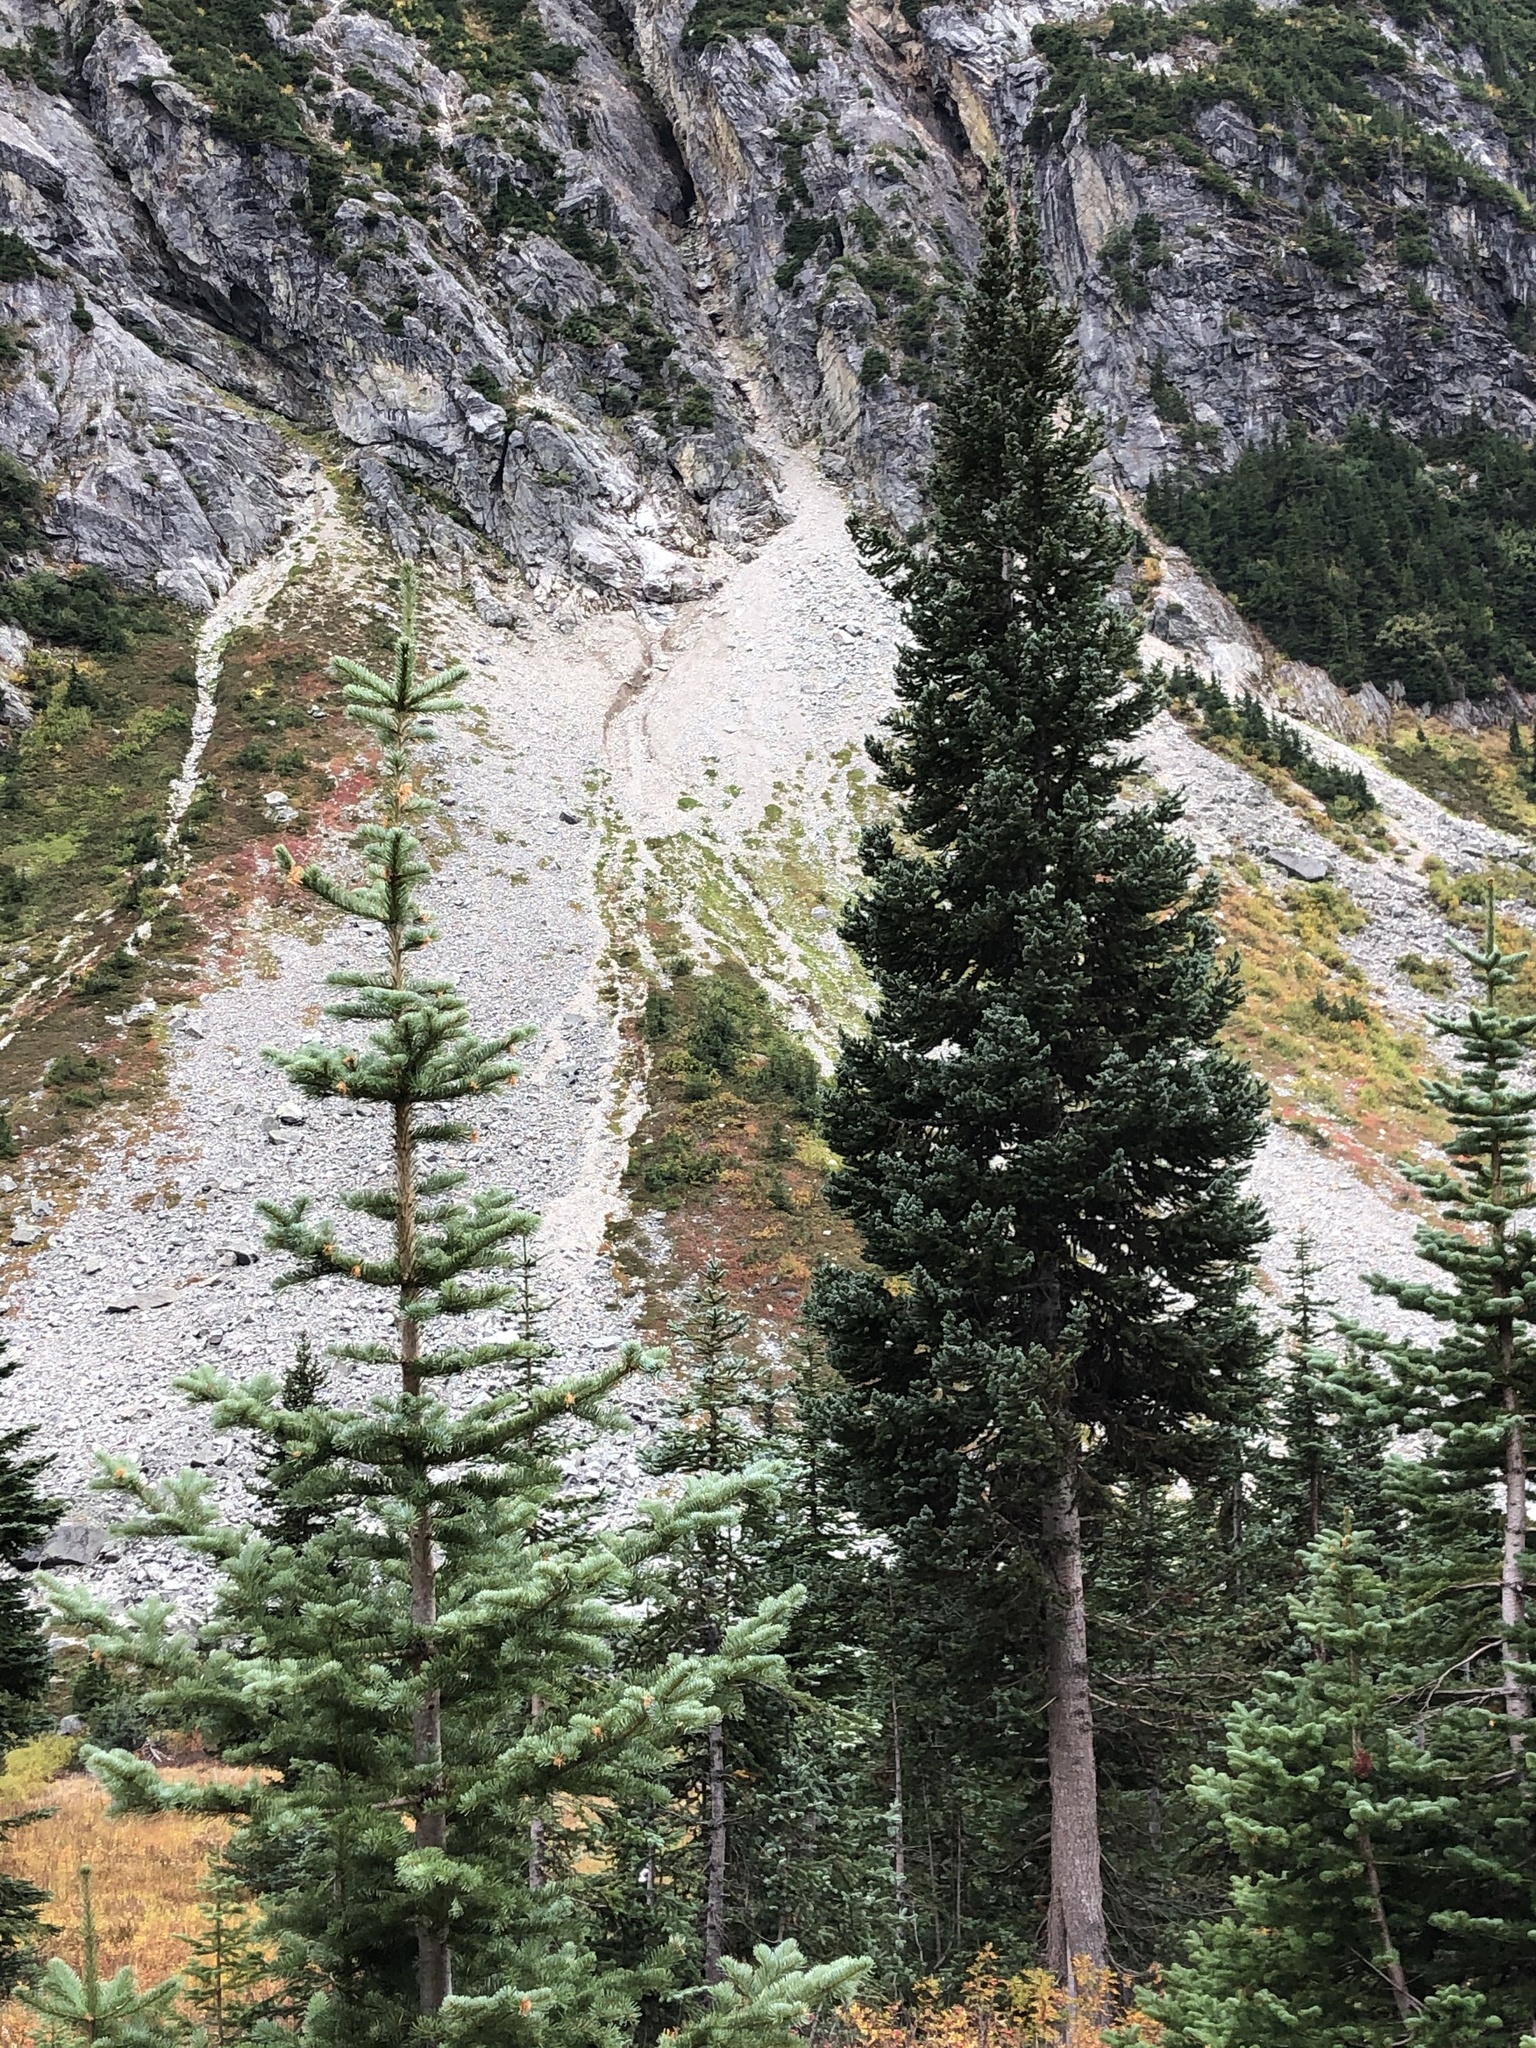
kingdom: Plantae
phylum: Tracheophyta
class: Pinopsida
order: Pinales
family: Pinaceae
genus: Abies
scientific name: Abies lasiocarpa
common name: Subalpine fir
